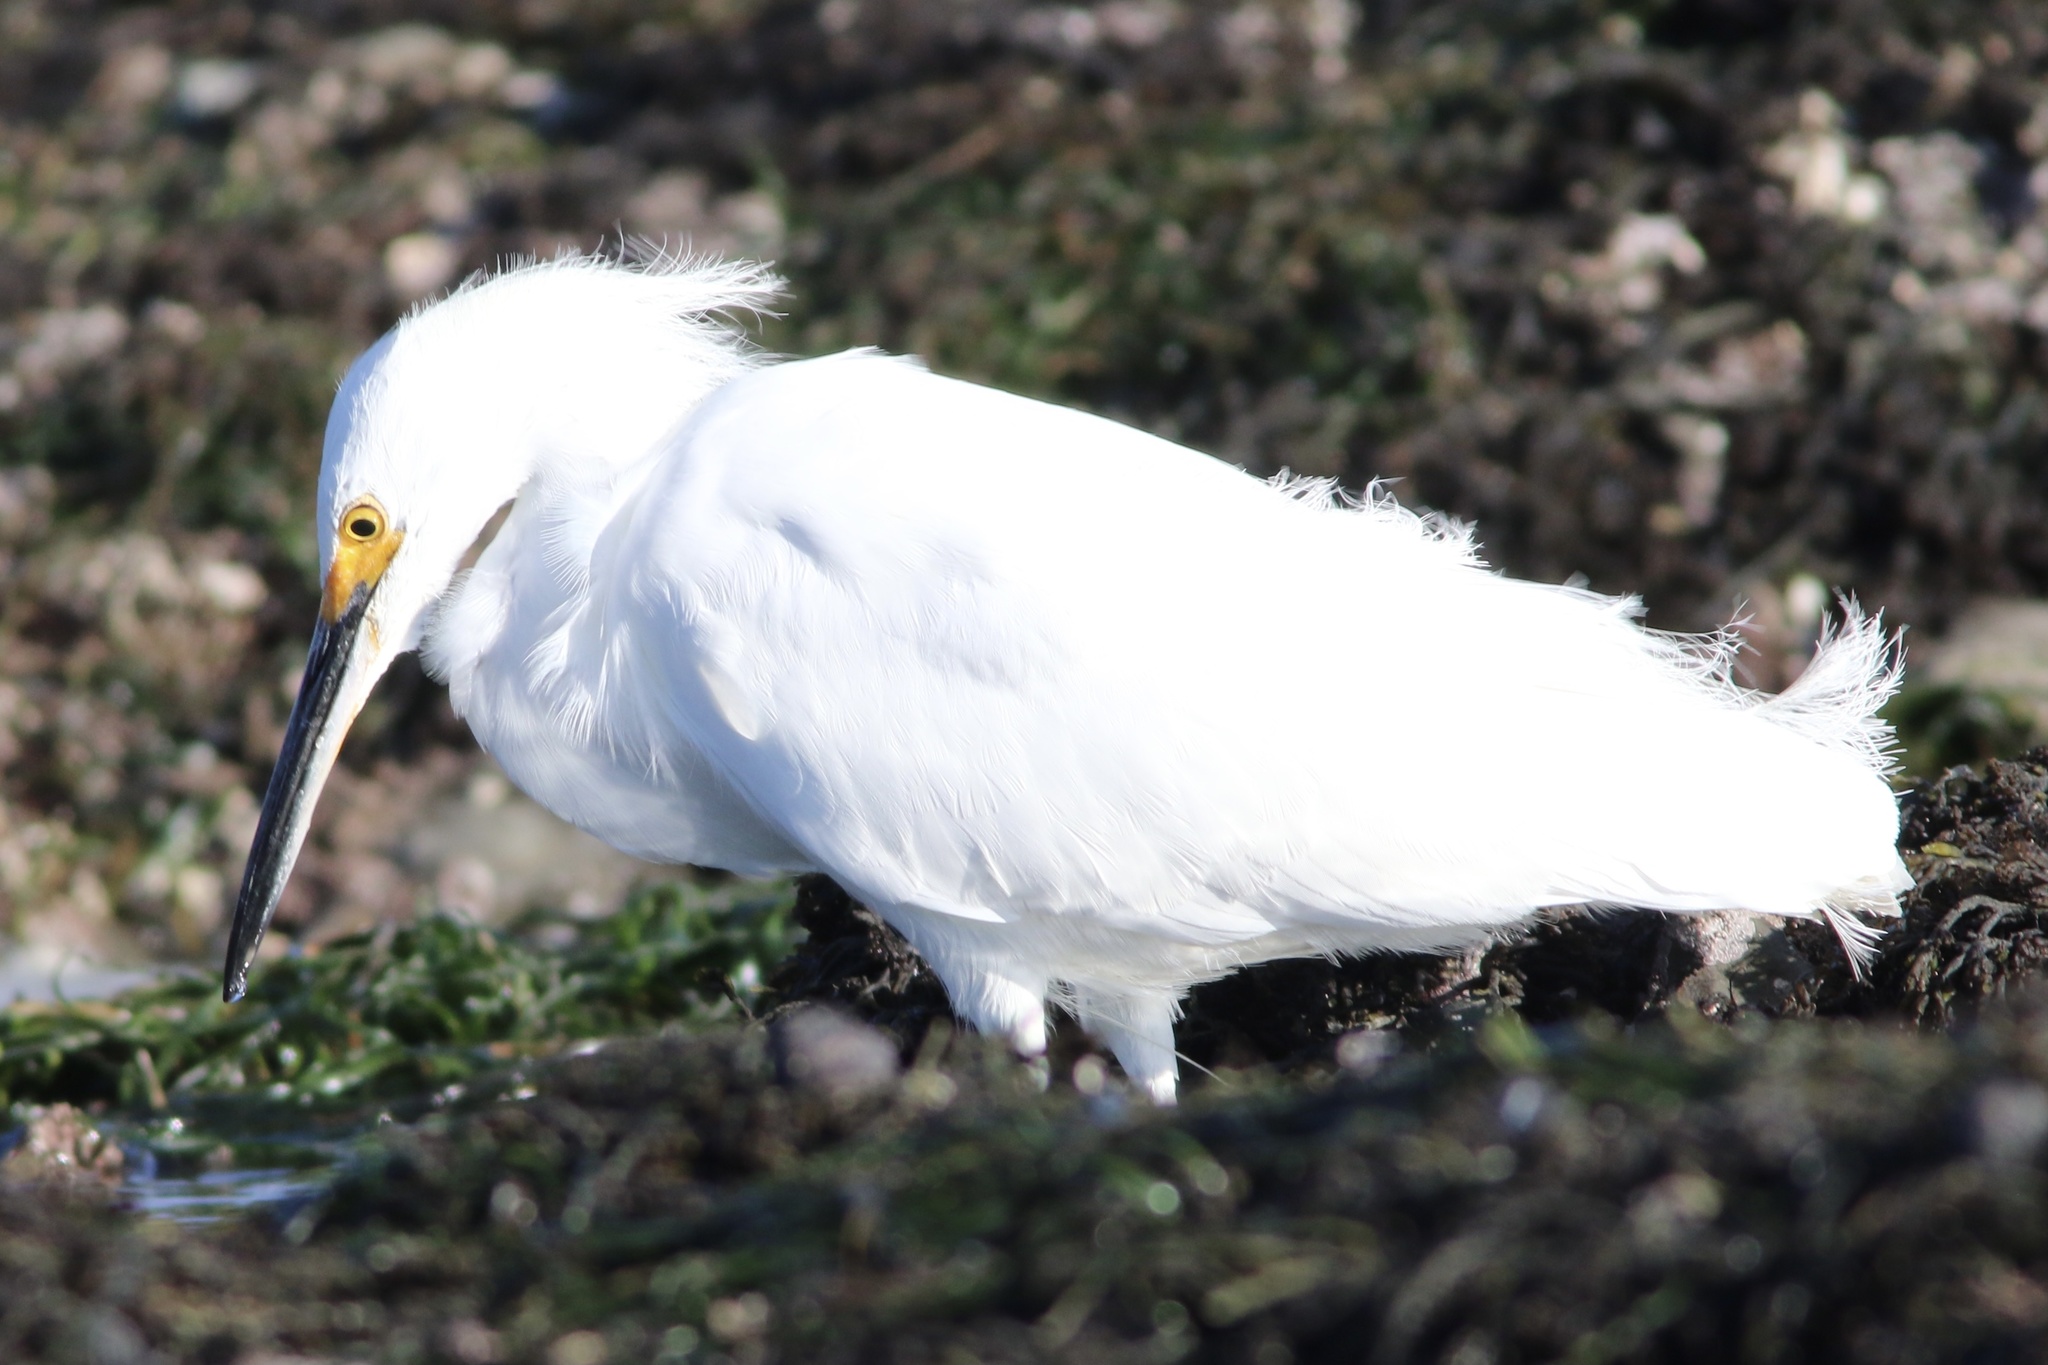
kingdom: Animalia
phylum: Chordata
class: Aves
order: Pelecaniformes
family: Ardeidae
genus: Egretta
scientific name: Egretta thula
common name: Snowy egret
